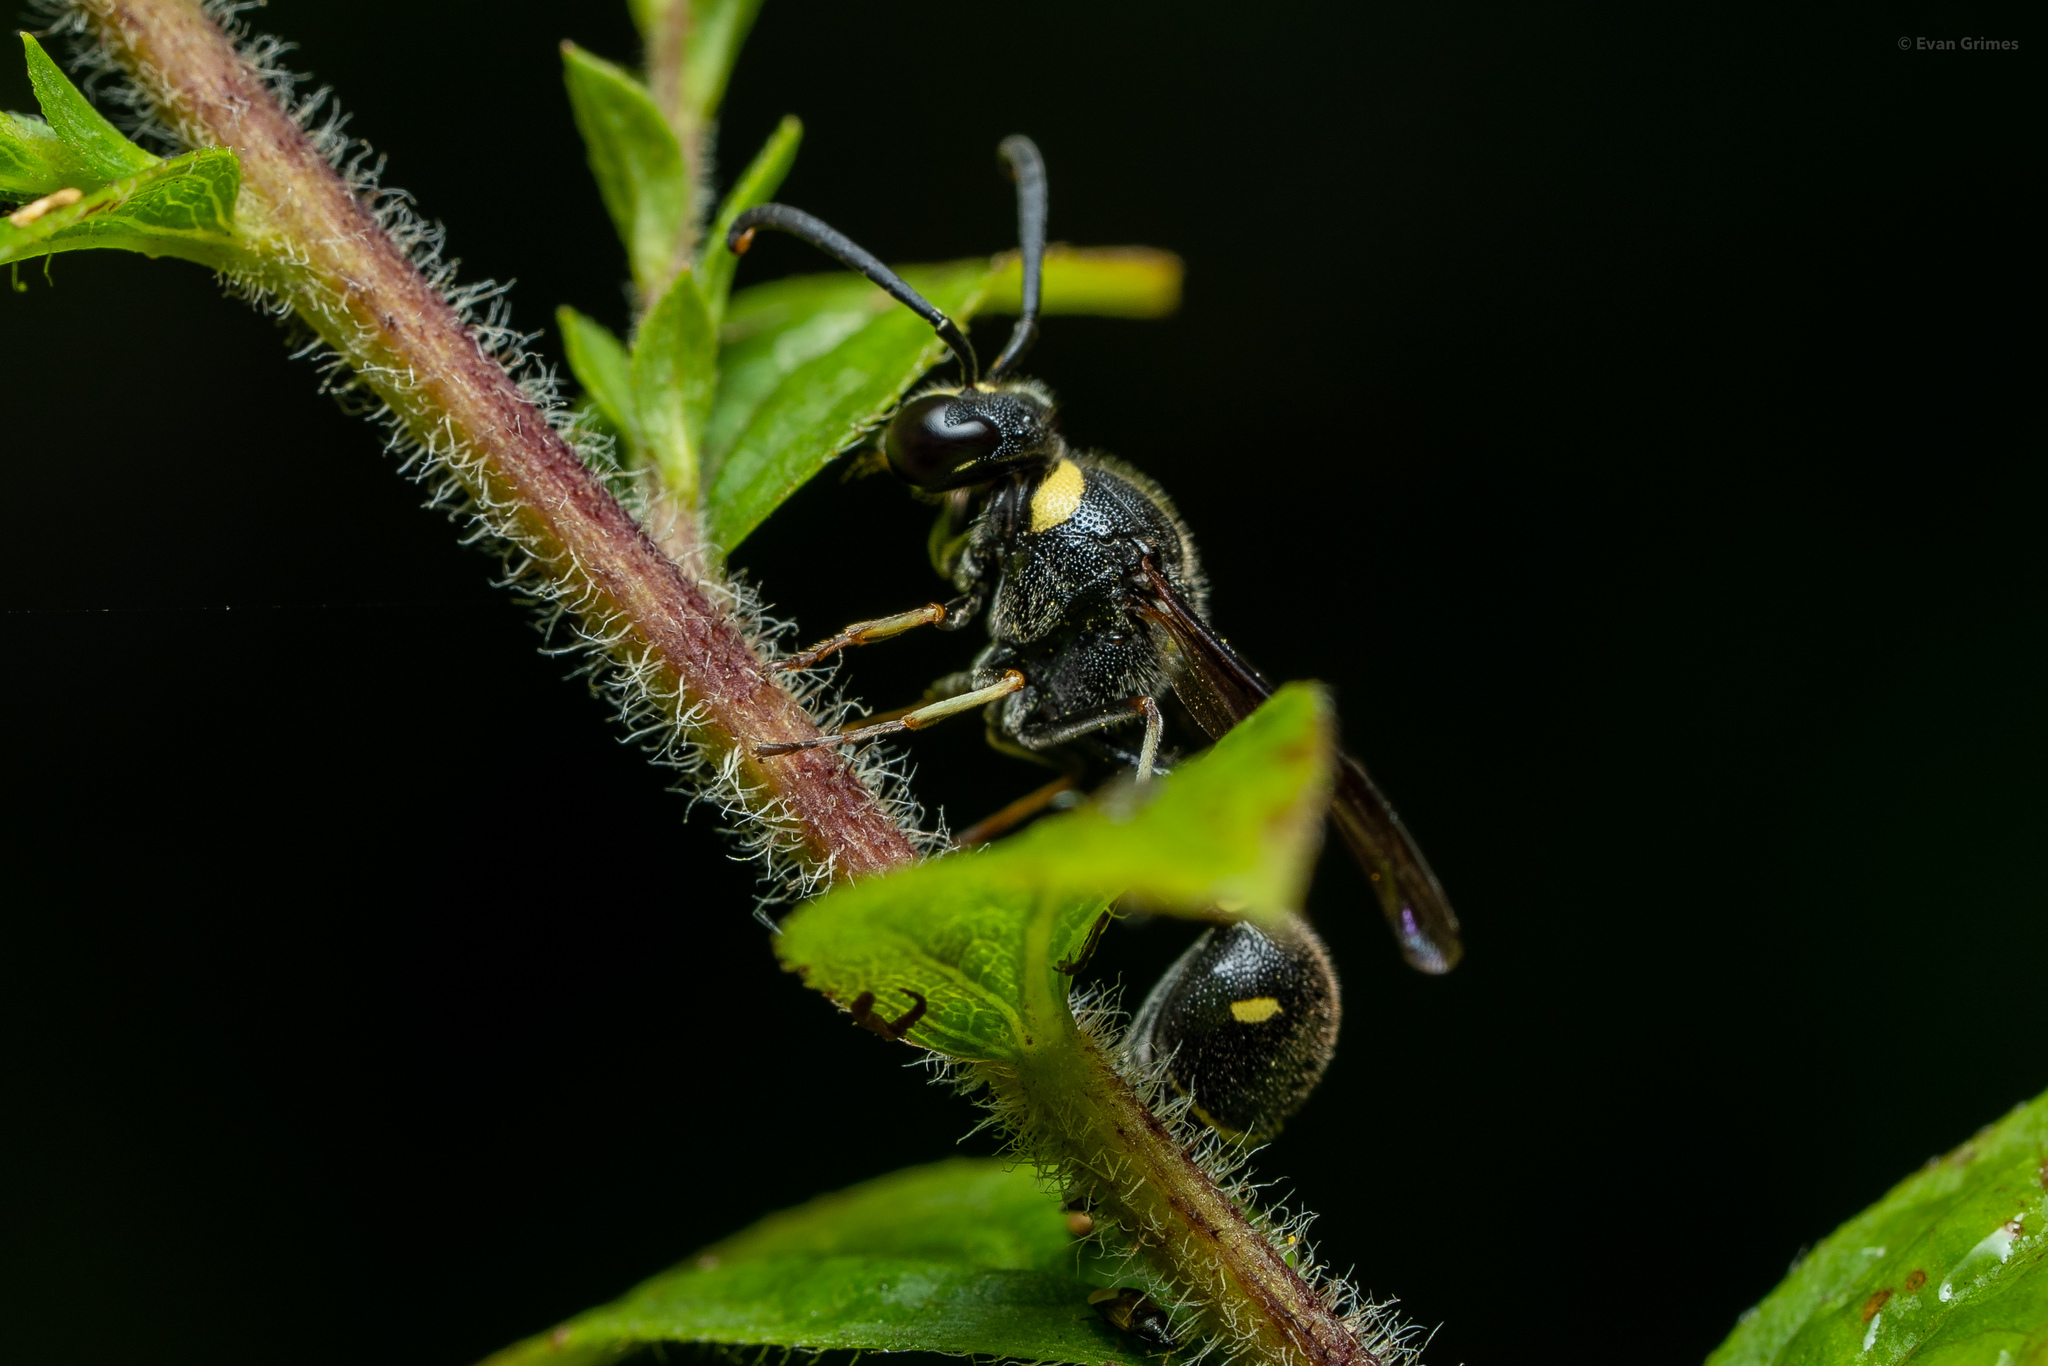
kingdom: Animalia
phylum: Arthropoda
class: Insecta
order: Hymenoptera
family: Vespidae
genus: Eumenes
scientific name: Eumenes fraternus
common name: Fraternal potter wasp
